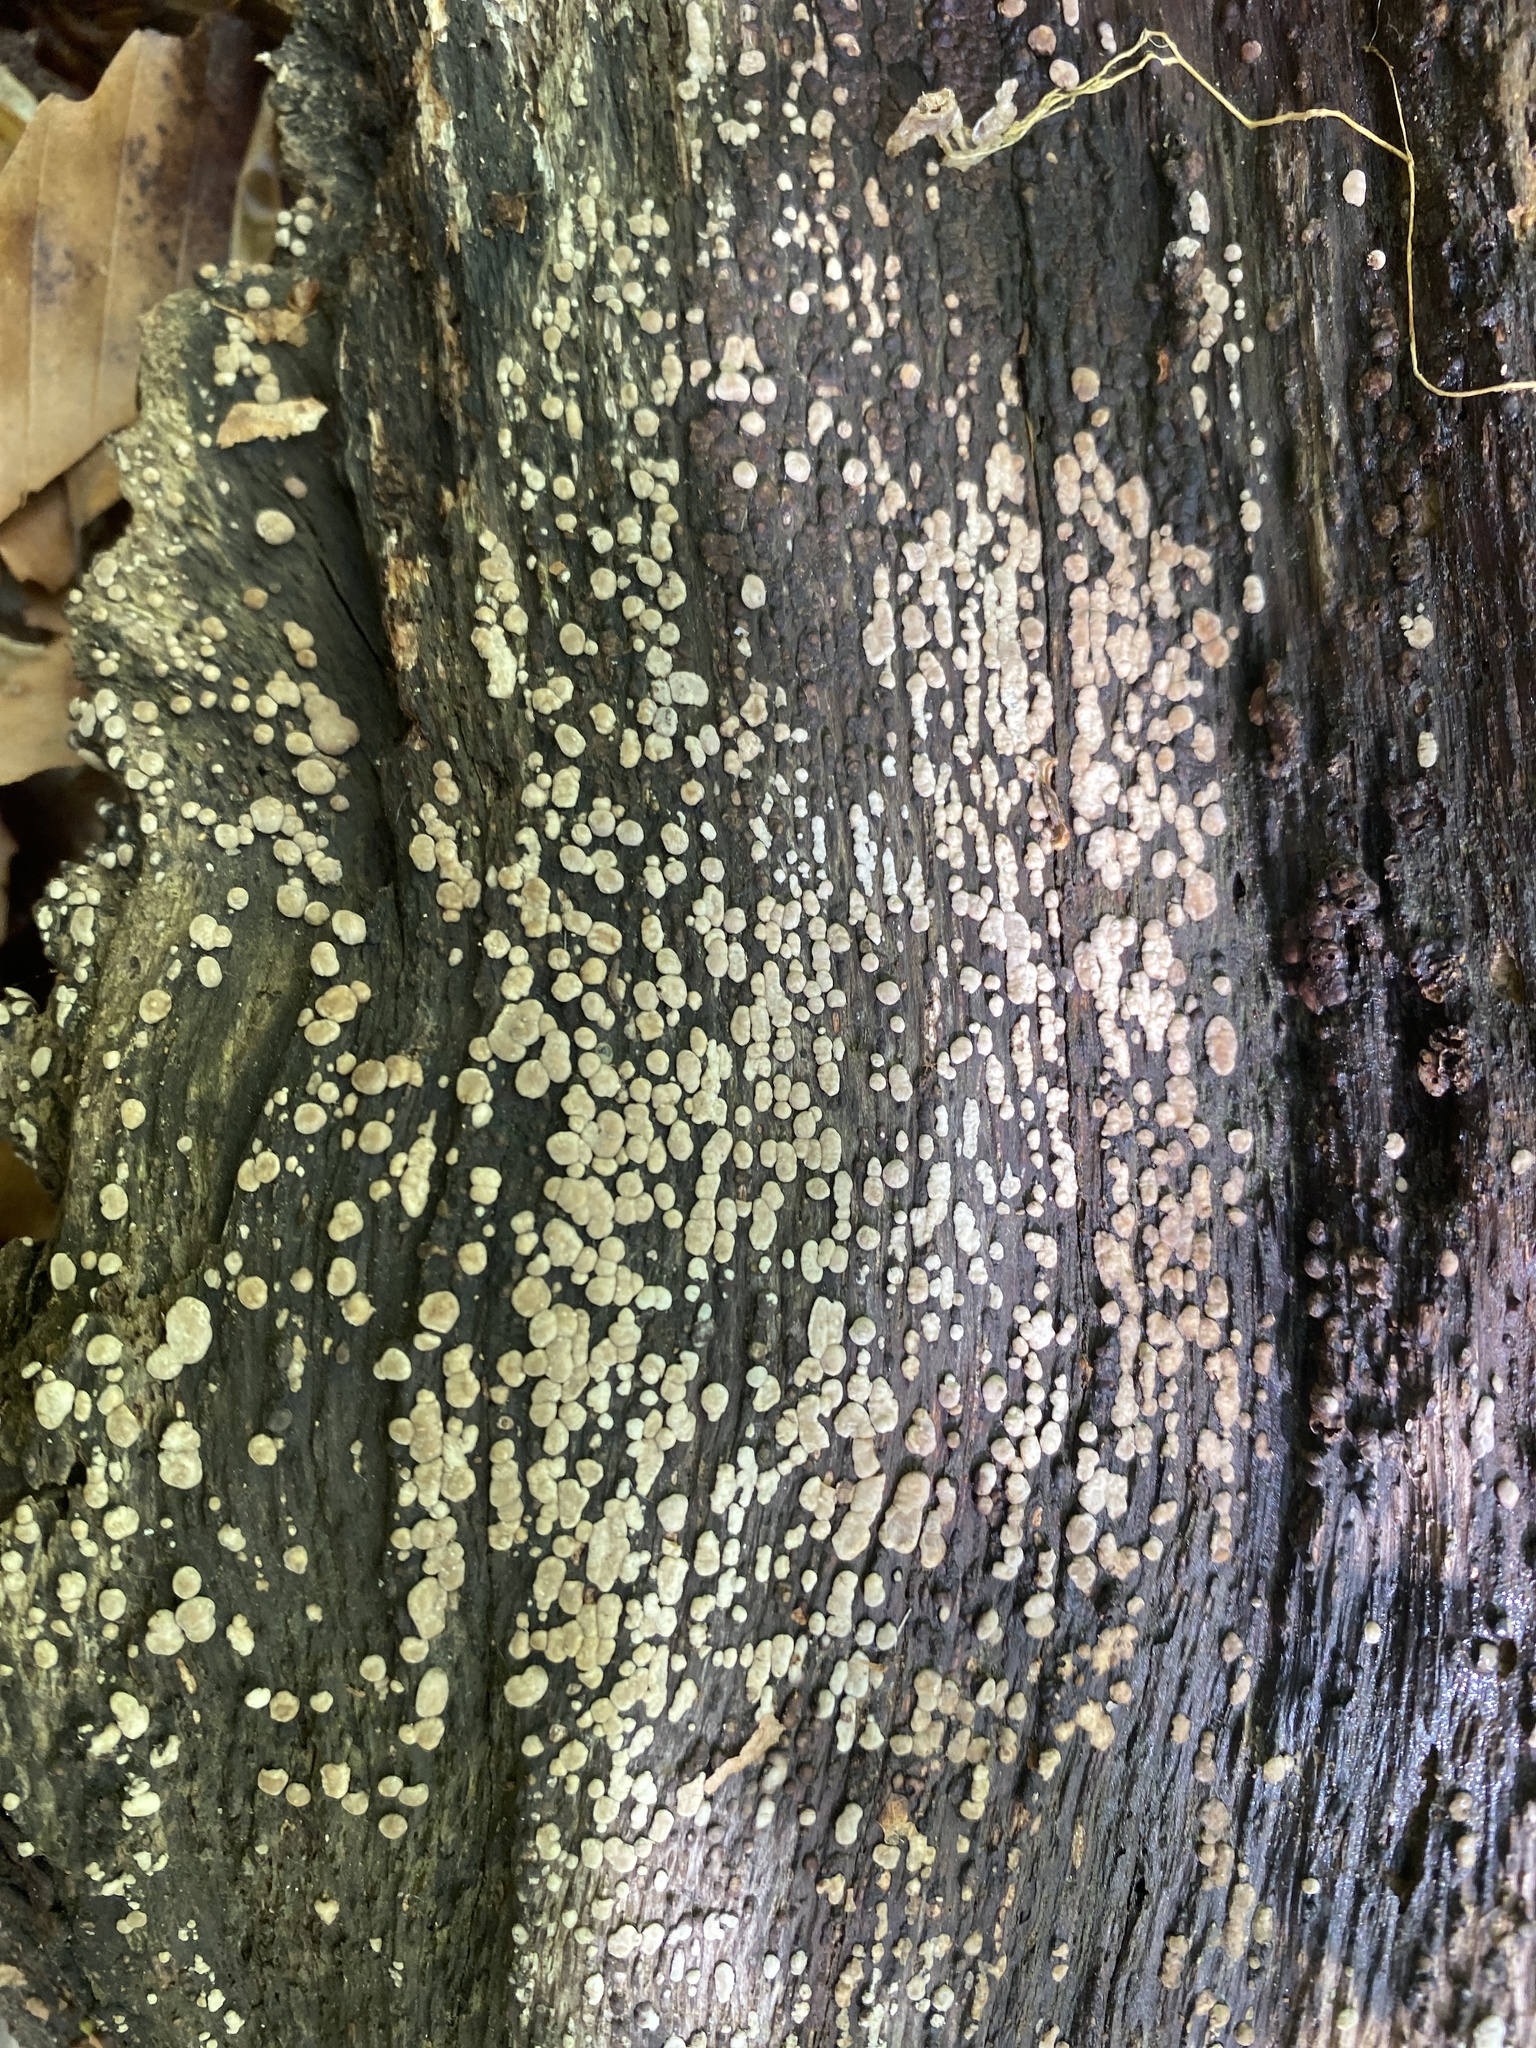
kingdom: Fungi
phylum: Basidiomycota
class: Agaricomycetes
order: Russulales
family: Stereaceae
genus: Xylobolus
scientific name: Xylobolus frustulatus
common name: Ceramic parchment
